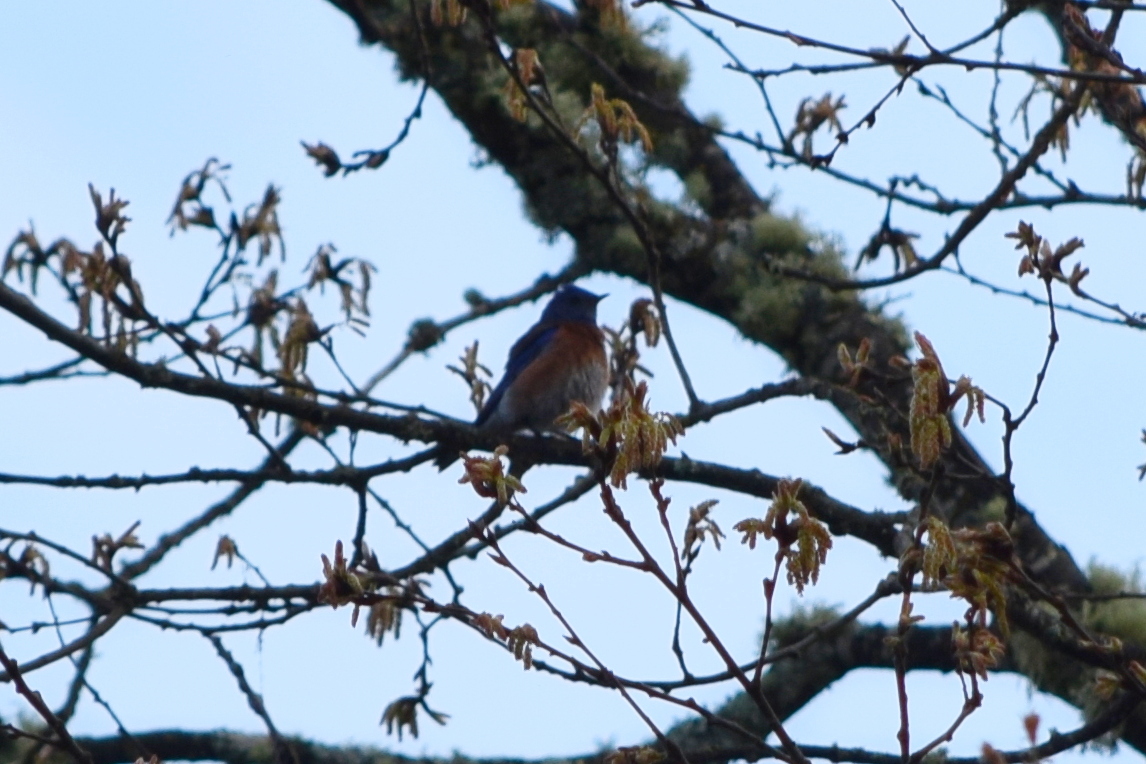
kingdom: Animalia
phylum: Chordata
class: Aves
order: Passeriformes
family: Turdidae
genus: Sialia
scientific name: Sialia mexicana
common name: Western bluebird
